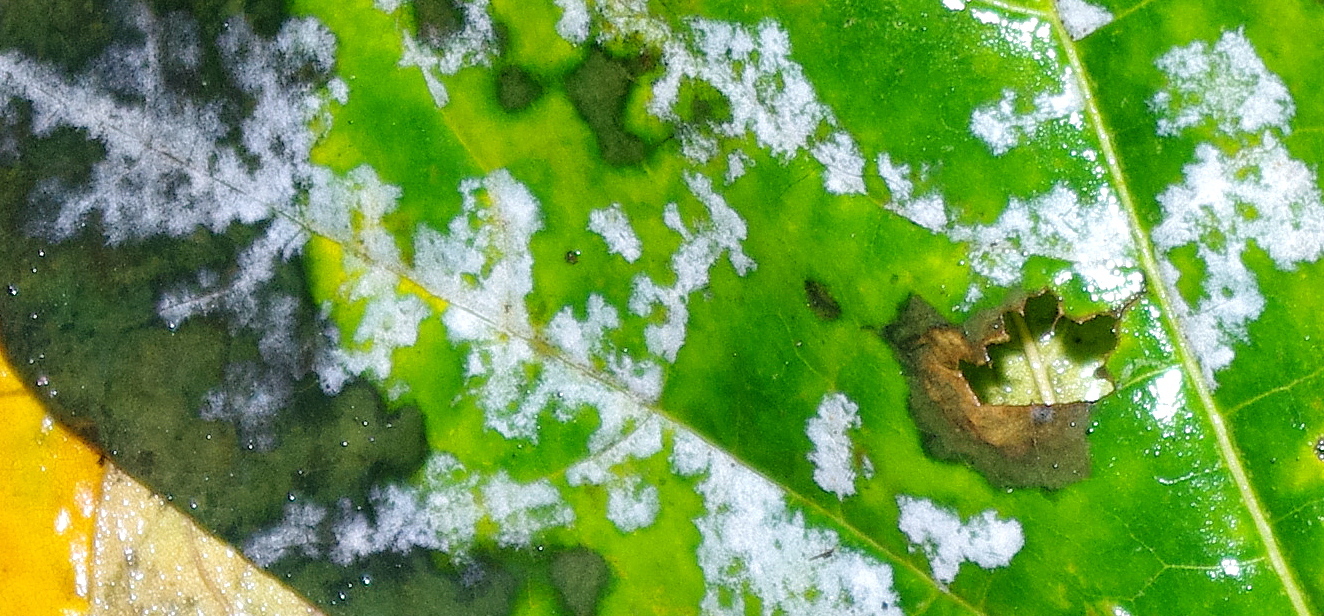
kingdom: Fungi
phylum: Ascomycota
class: Leotiomycetes
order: Helotiales
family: Erysiphaceae
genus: Sawadaea
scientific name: Sawadaea tulasnei
